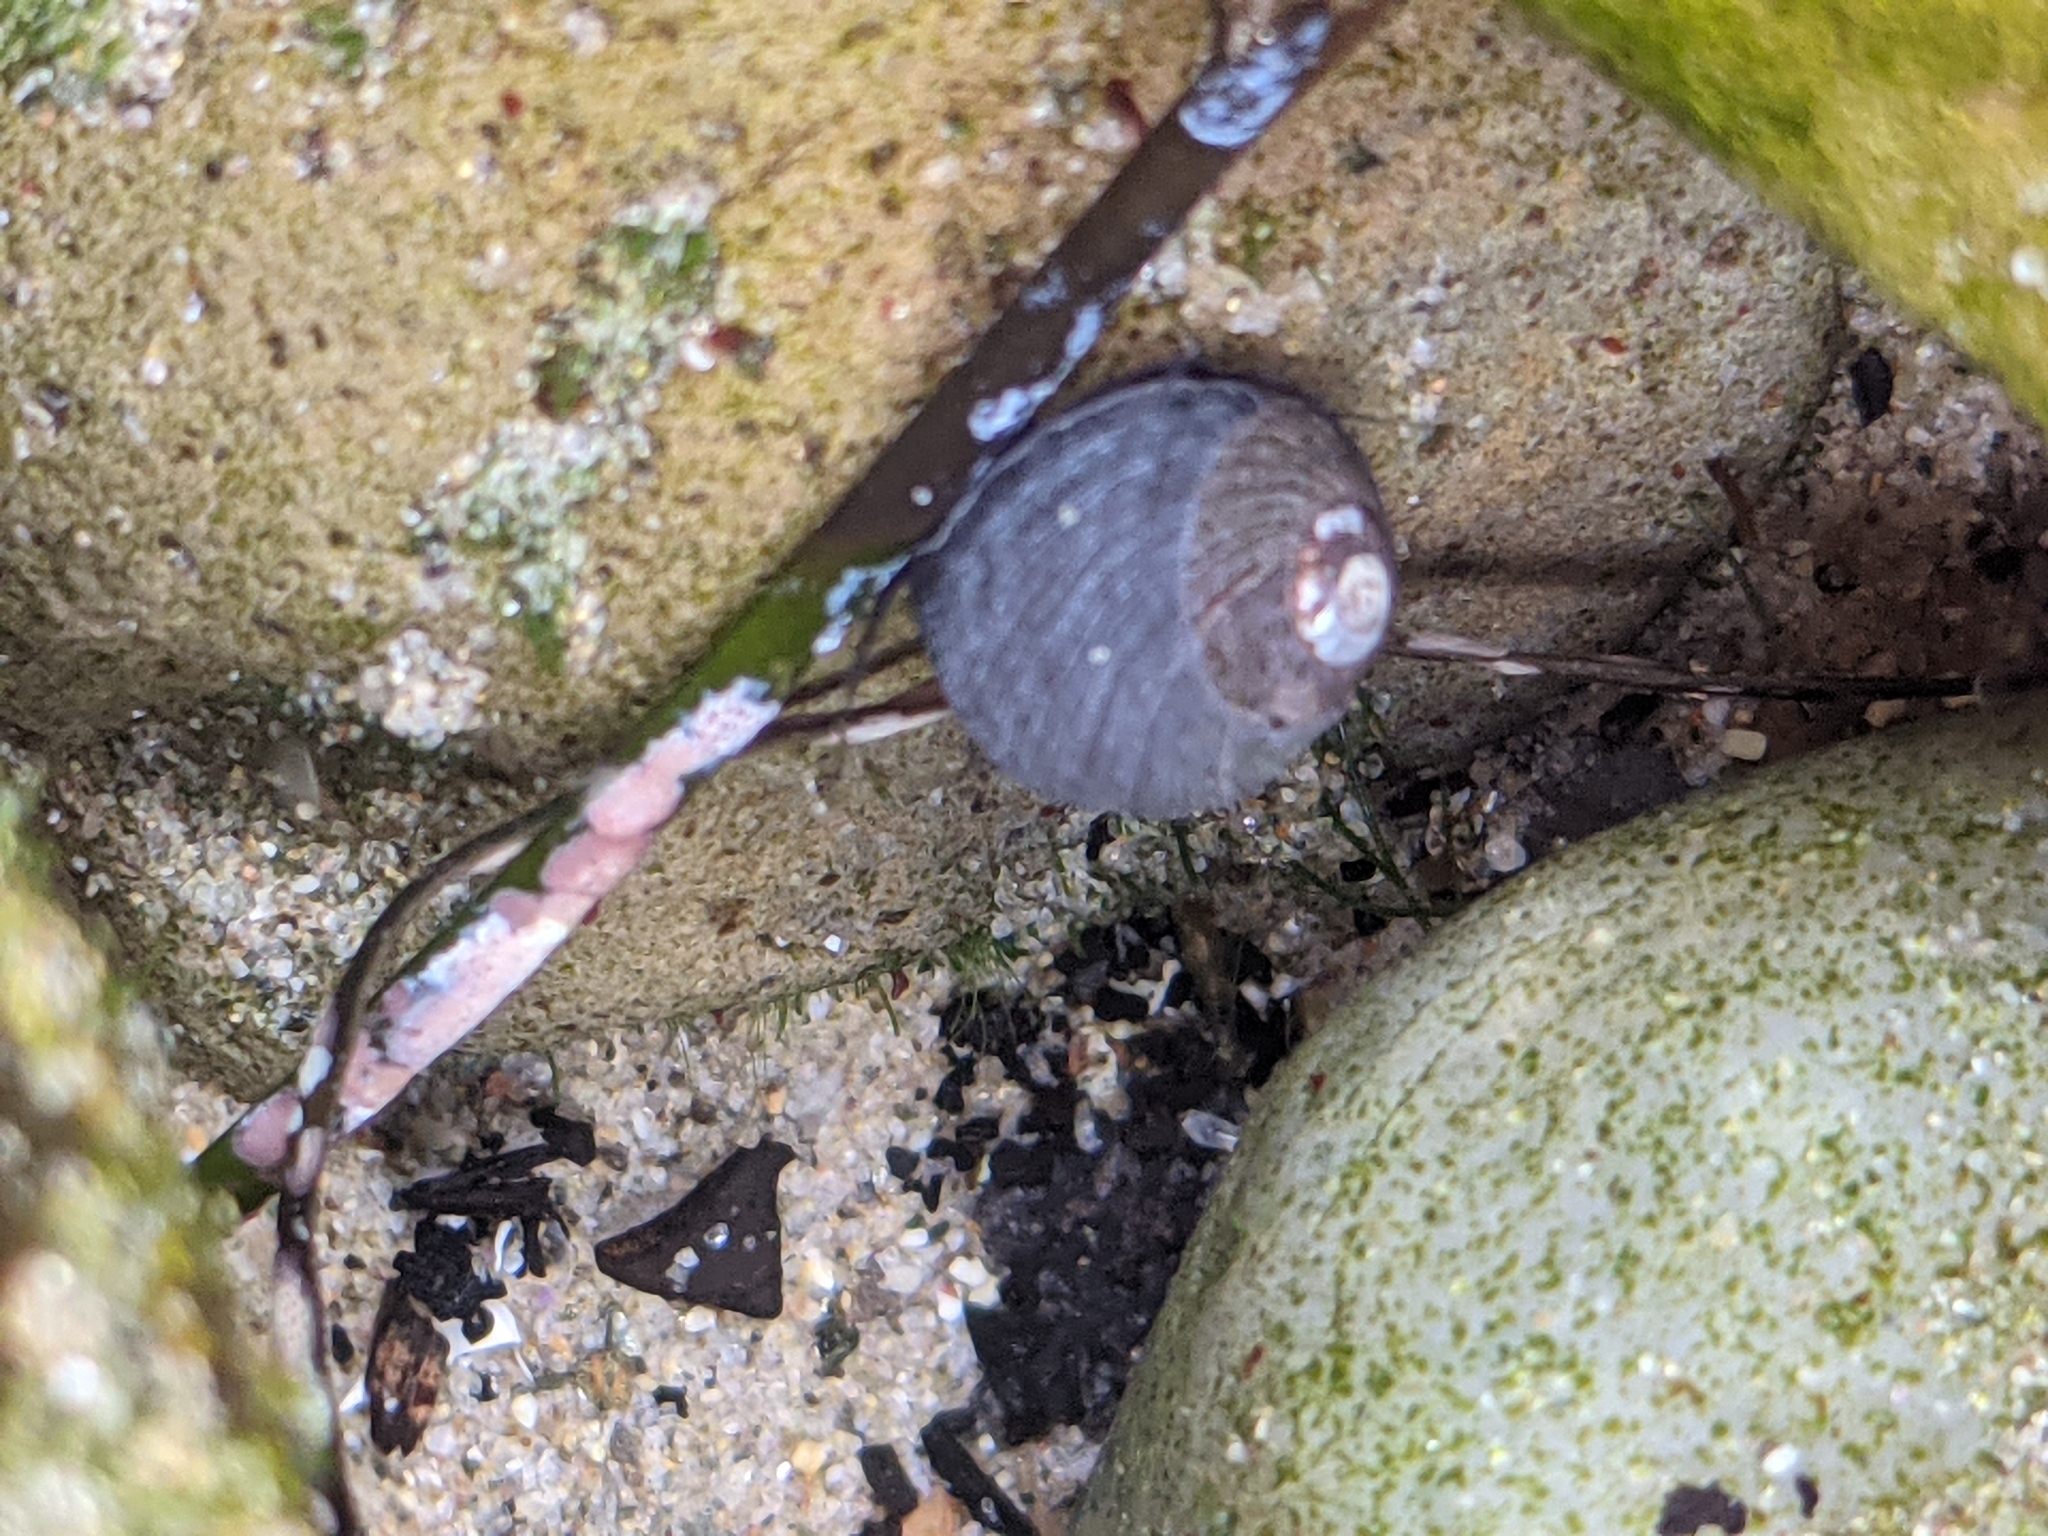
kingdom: Animalia
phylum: Mollusca
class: Gastropoda
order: Trochida
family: Tegulidae
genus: Tegula
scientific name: Tegula funebralis
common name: Black tegula
